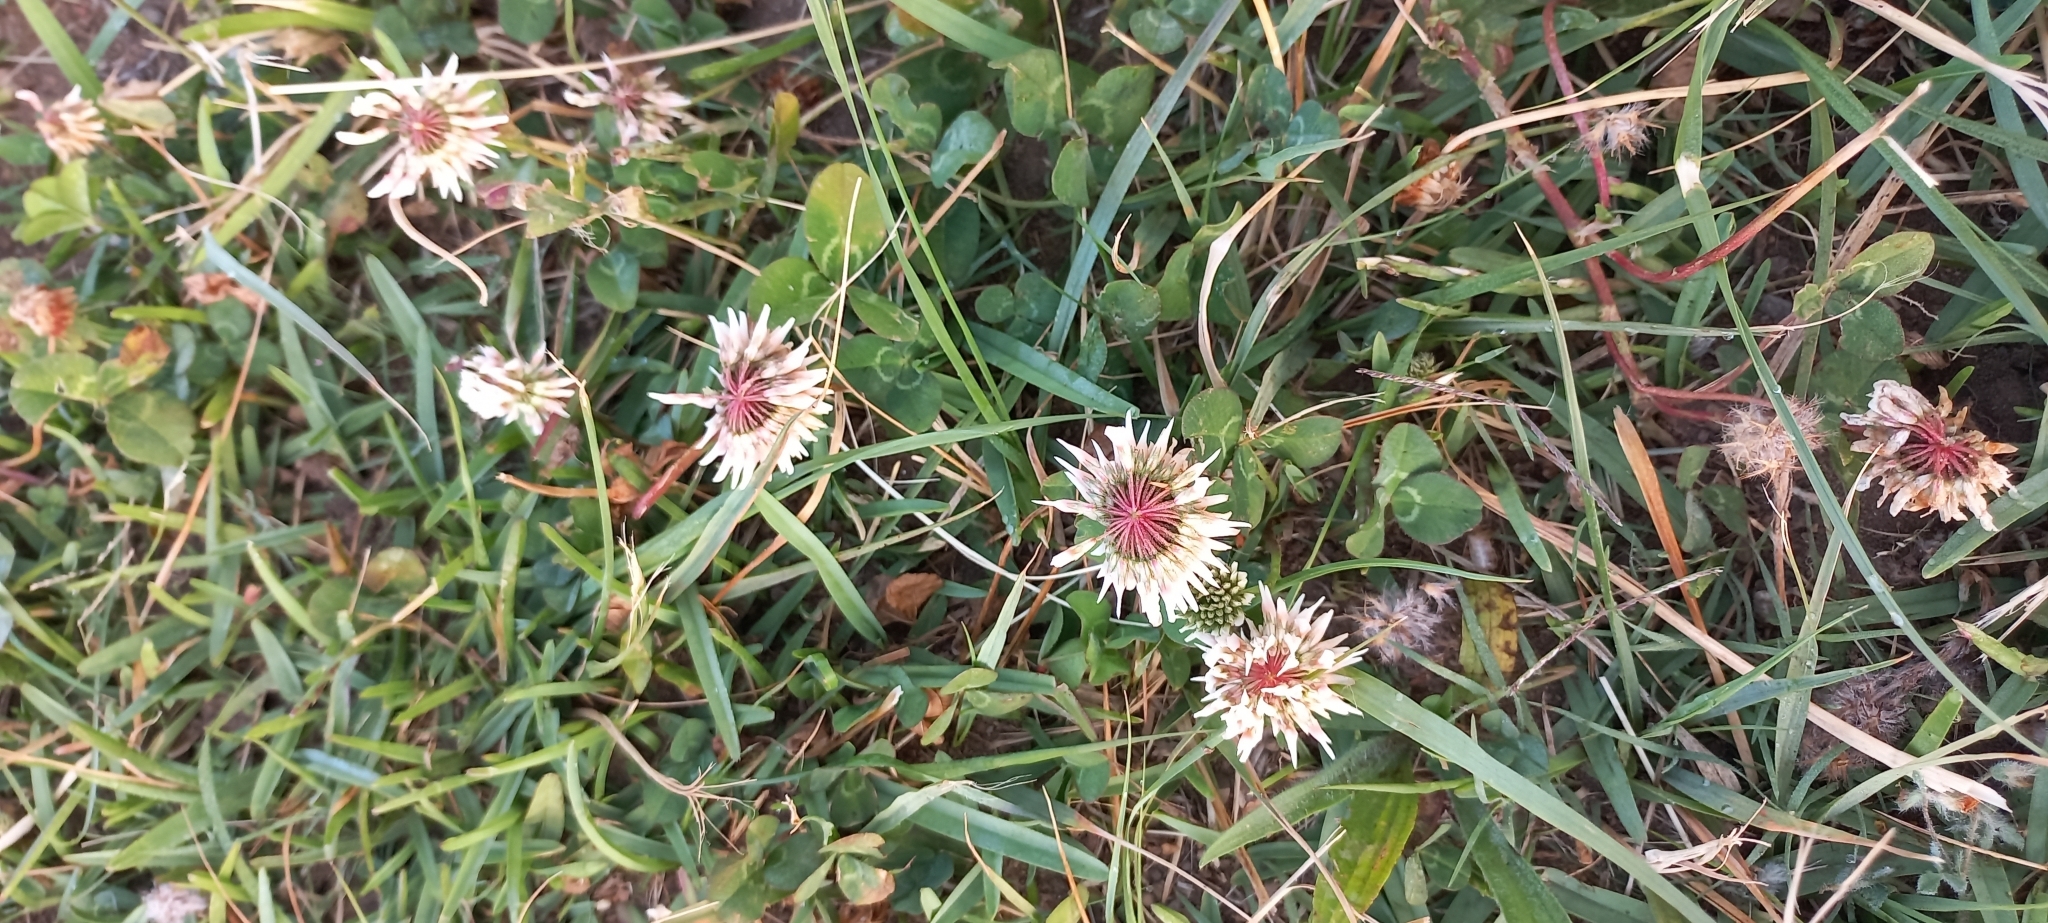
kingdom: Plantae
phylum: Tracheophyta
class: Magnoliopsida
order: Fabales
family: Fabaceae
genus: Trifolium
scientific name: Trifolium repens
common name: White clover
